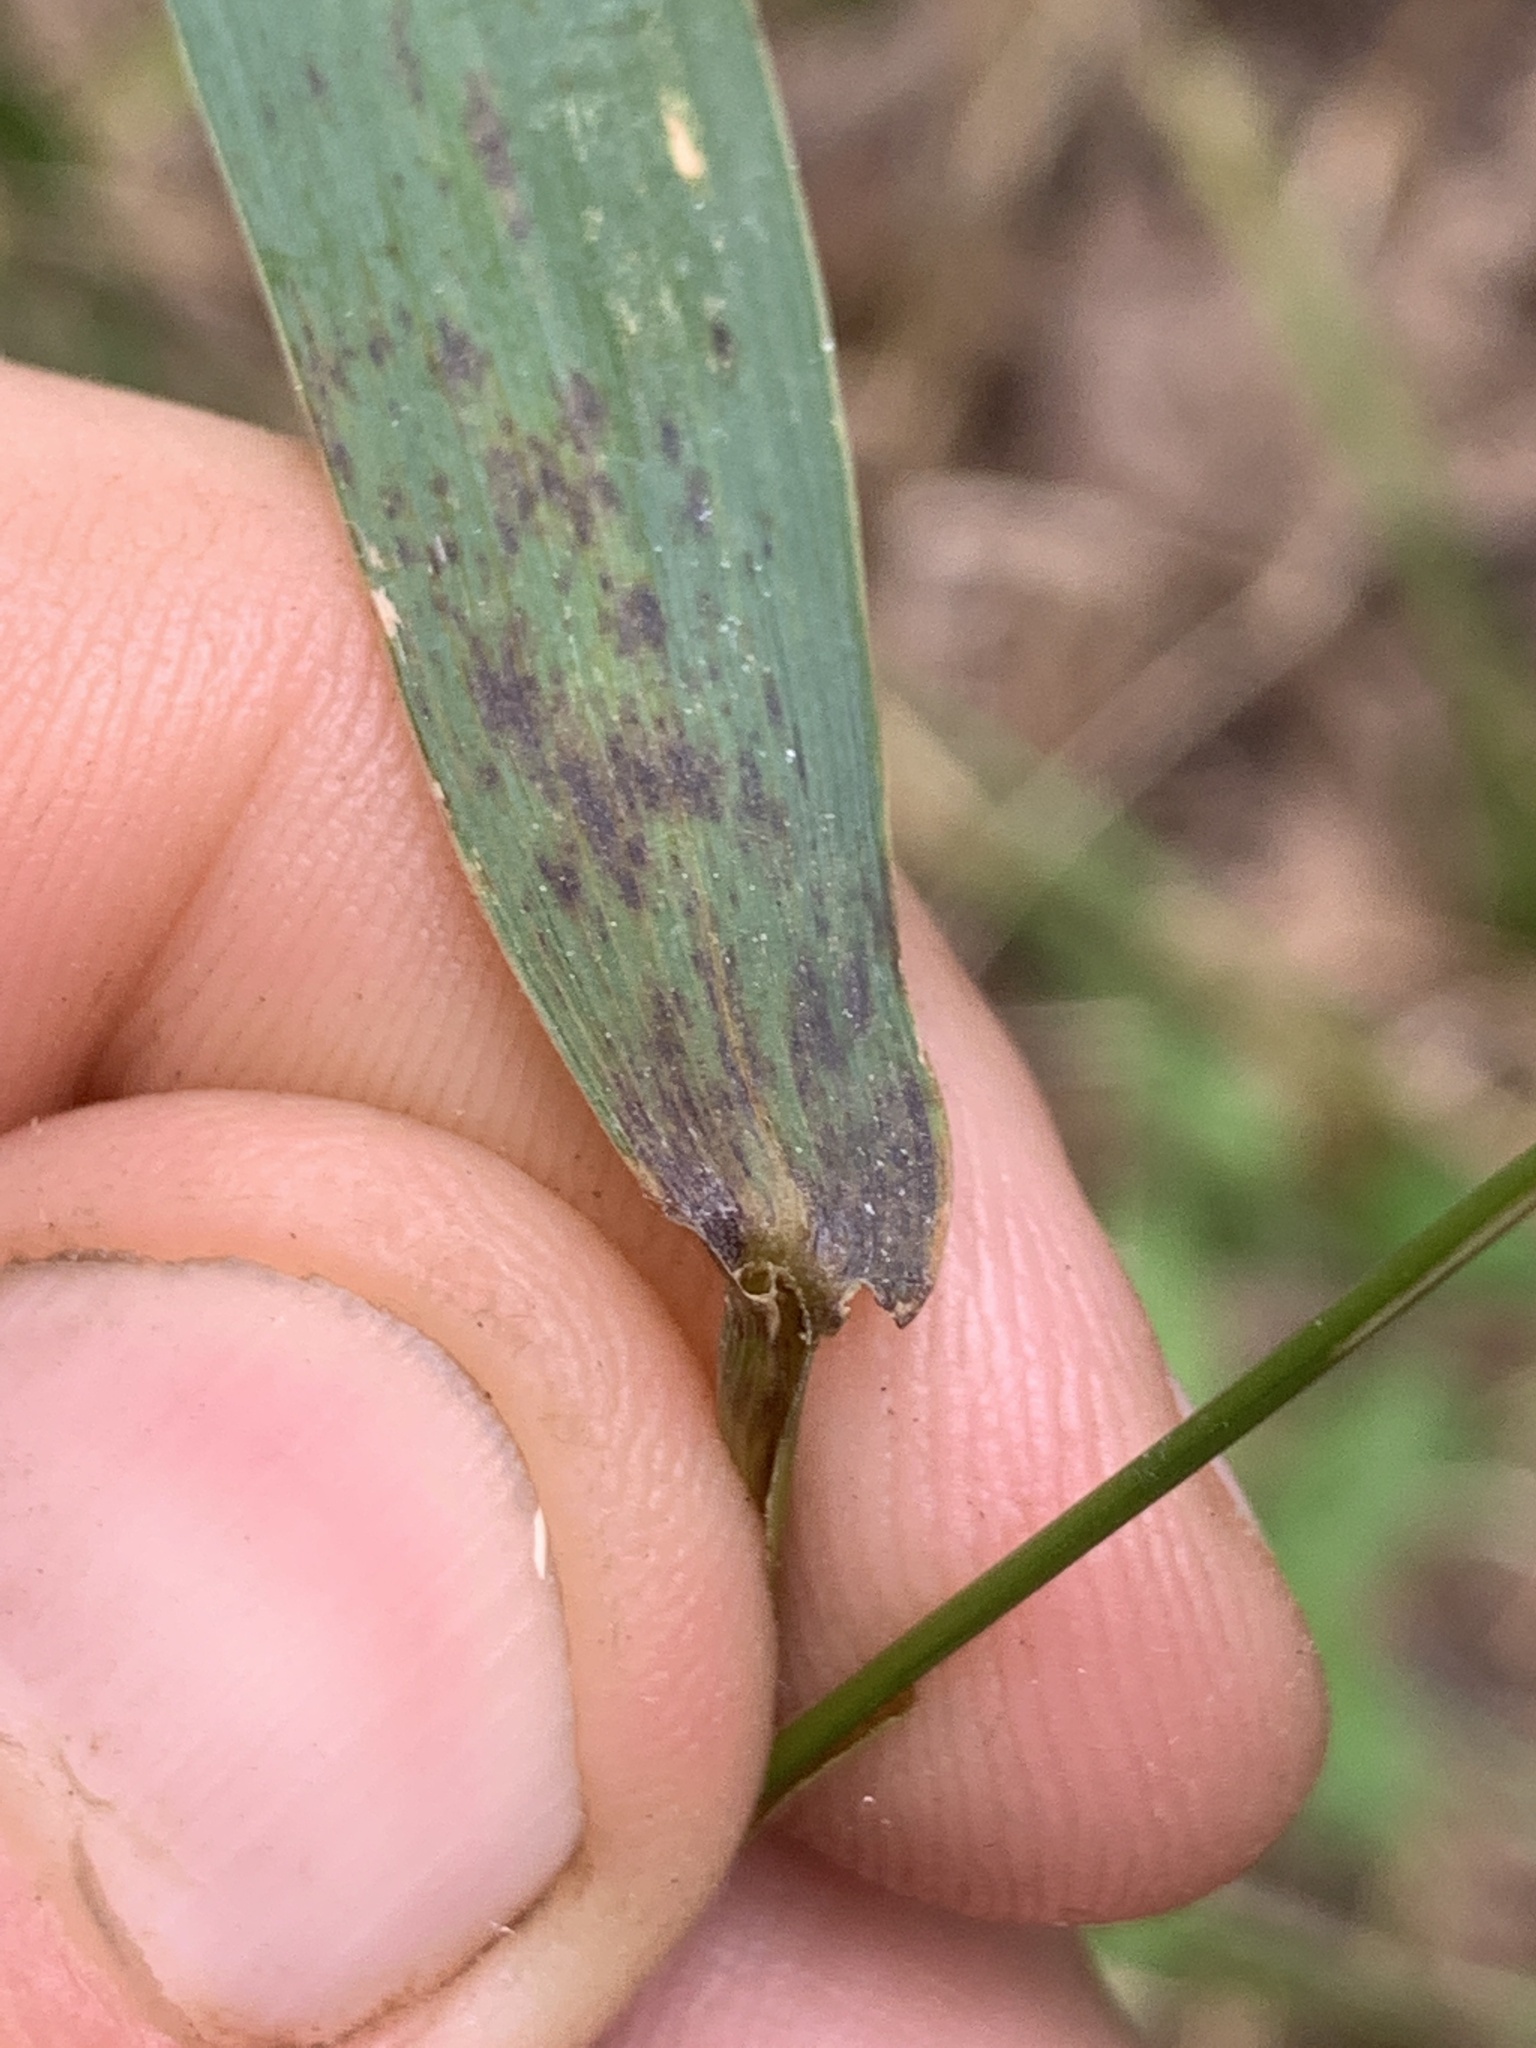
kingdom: Plantae
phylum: Tracheophyta
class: Liliopsida
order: Poales
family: Poaceae
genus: Elymus
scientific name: Elymus riparius
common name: Eastern riverbank wild rye
